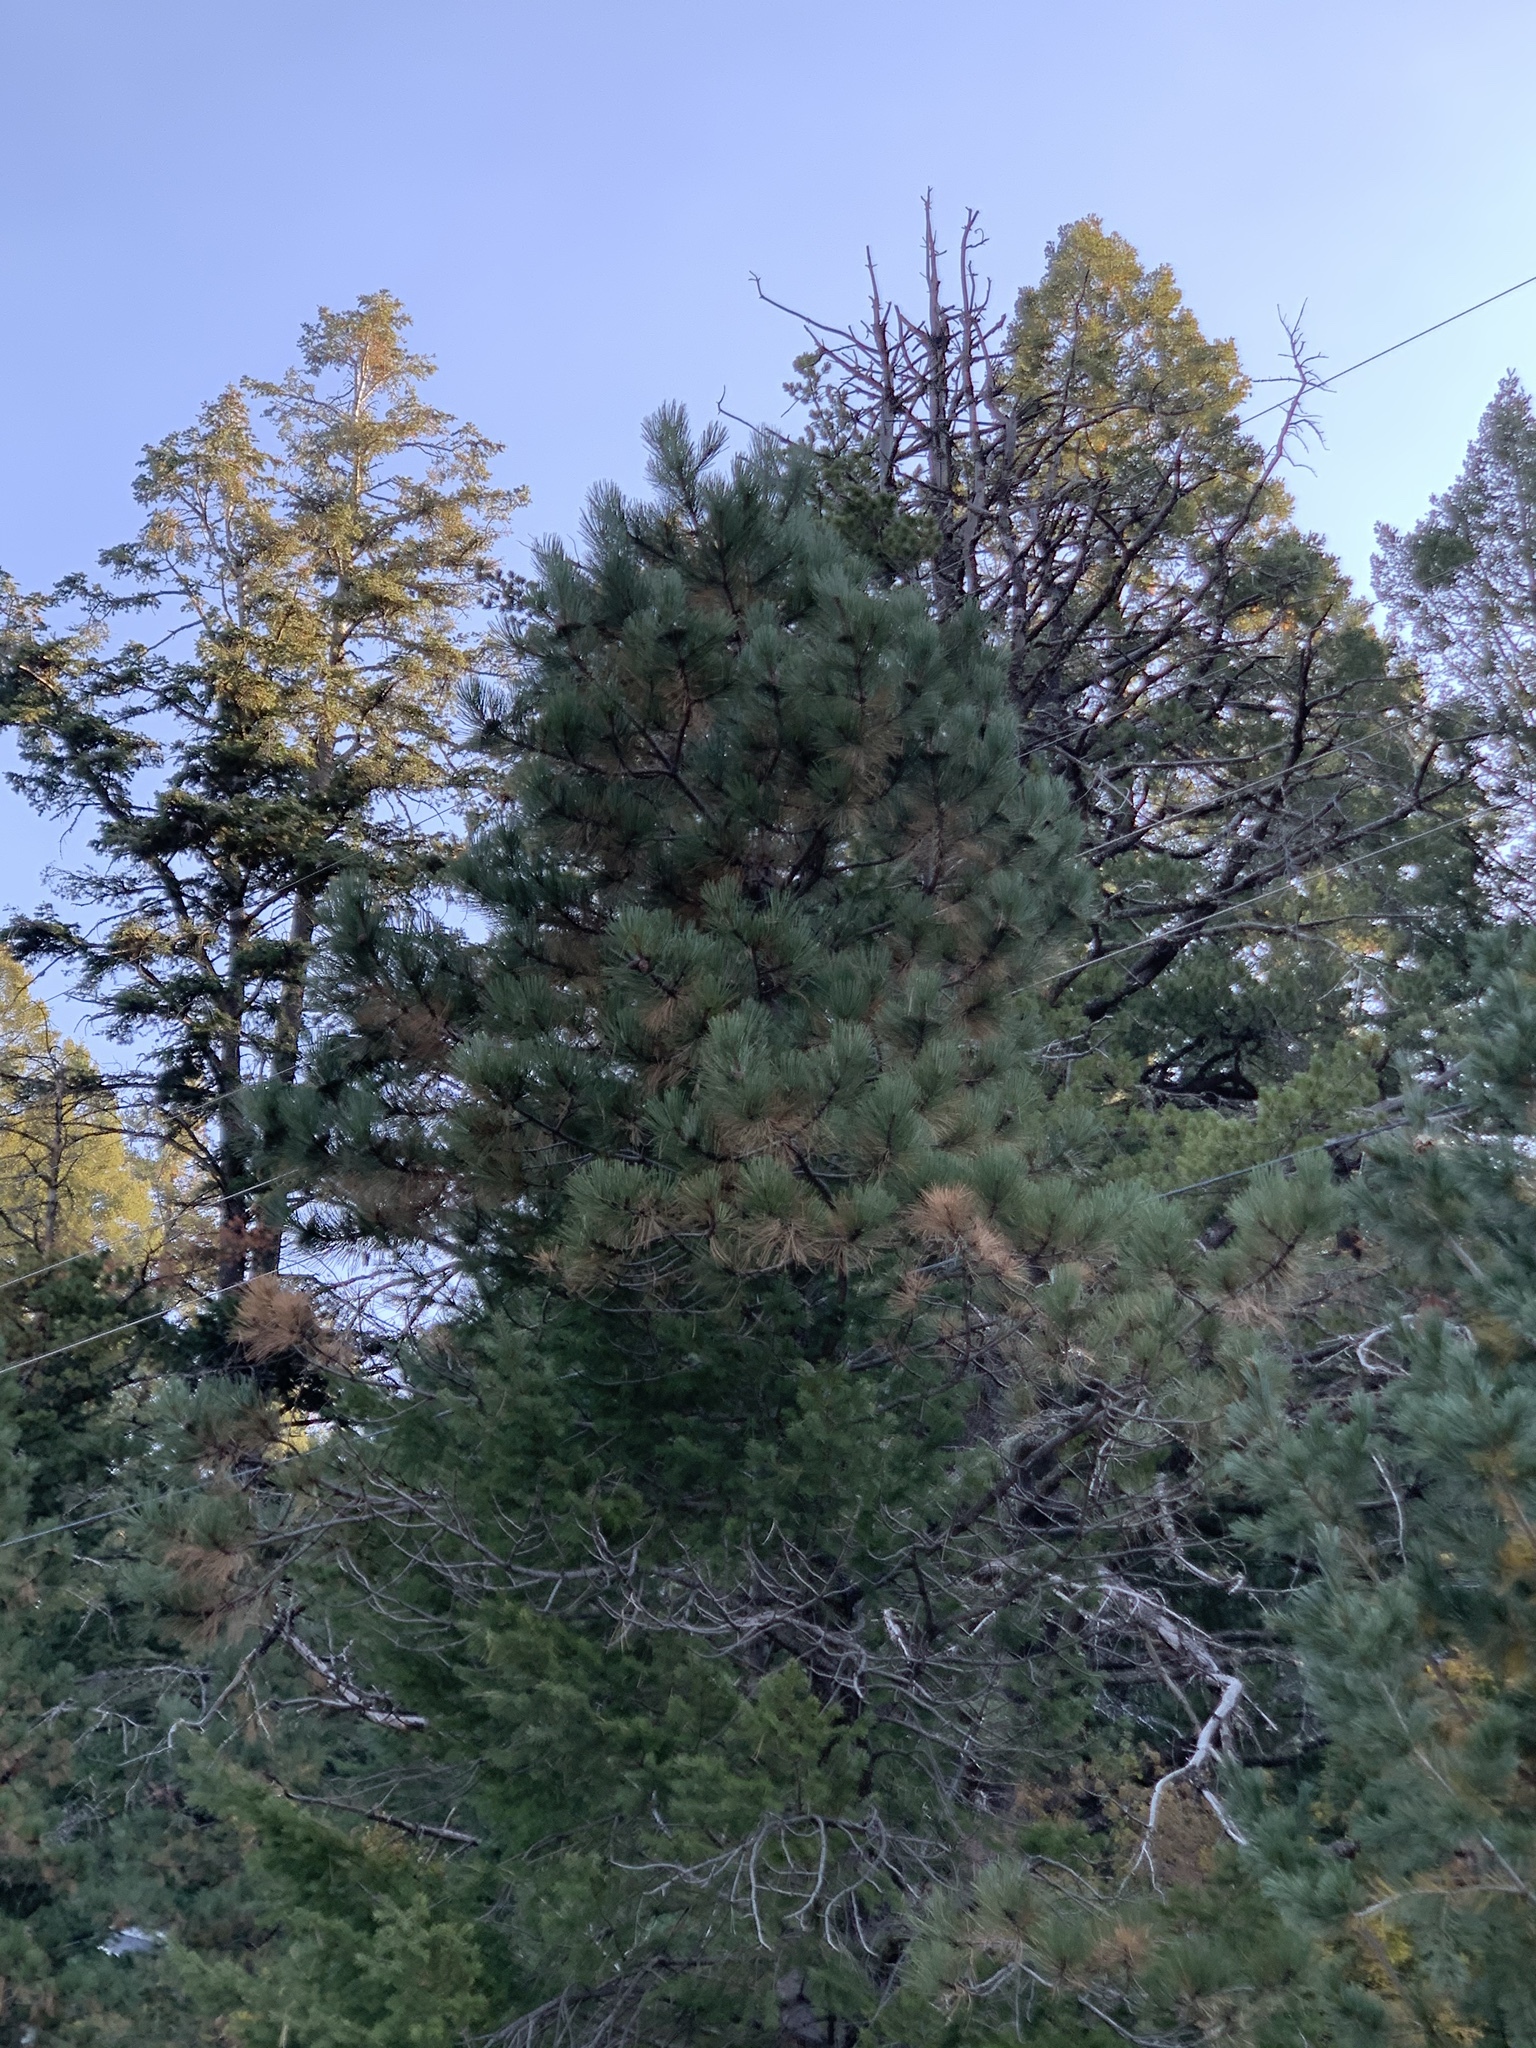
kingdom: Plantae
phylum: Tracheophyta
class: Pinopsida
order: Pinales
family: Pinaceae
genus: Pinus
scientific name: Pinus ponderosa
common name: Western yellow-pine
